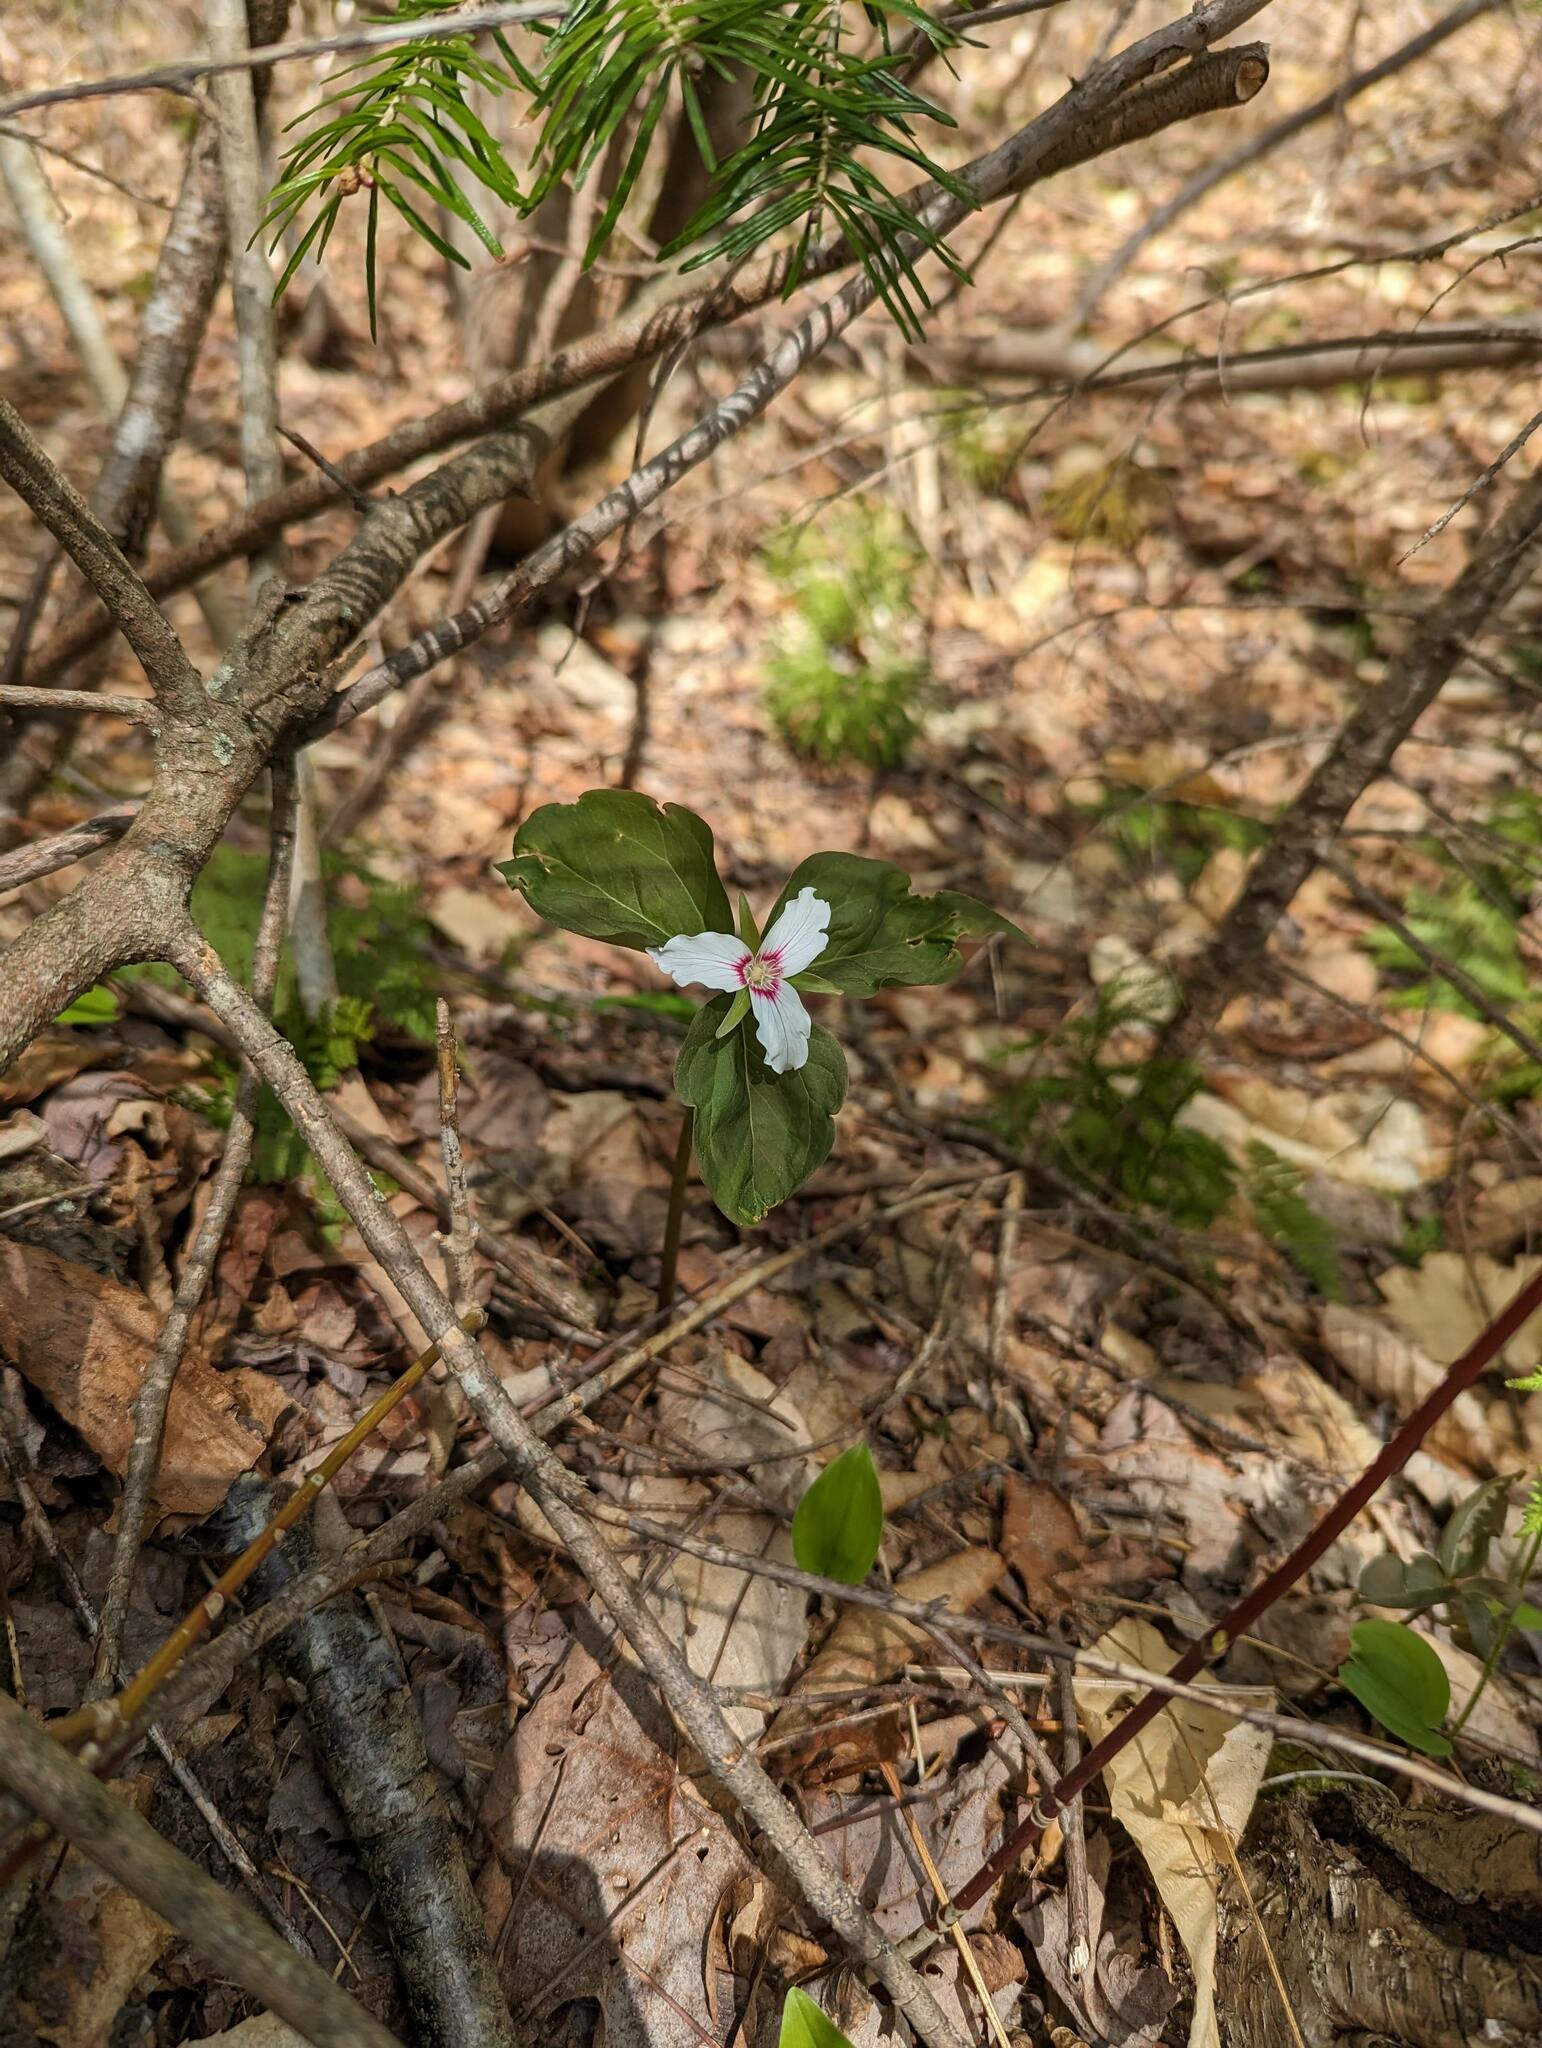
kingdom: Plantae
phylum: Tracheophyta
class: Liliopsida
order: Liliales
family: Melanthiaceae
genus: Trillium
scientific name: Trillium undulatum
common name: Paint trillium
